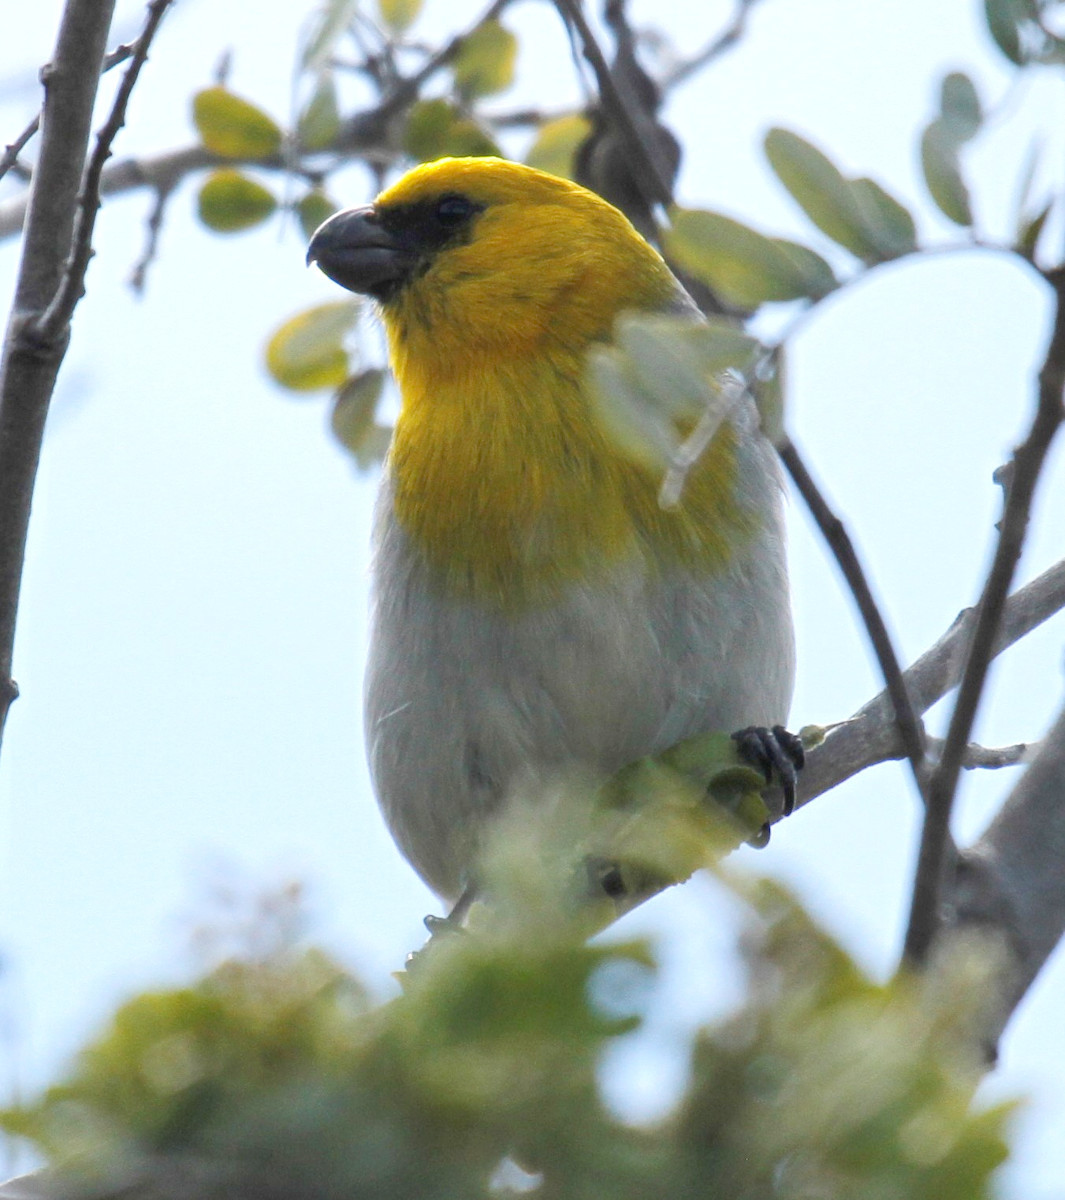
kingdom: Animalia
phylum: Chordata
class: Aves
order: Passeriformes
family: Fringillidae
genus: Loxioides
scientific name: Loxioides bailleui
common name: Palila
